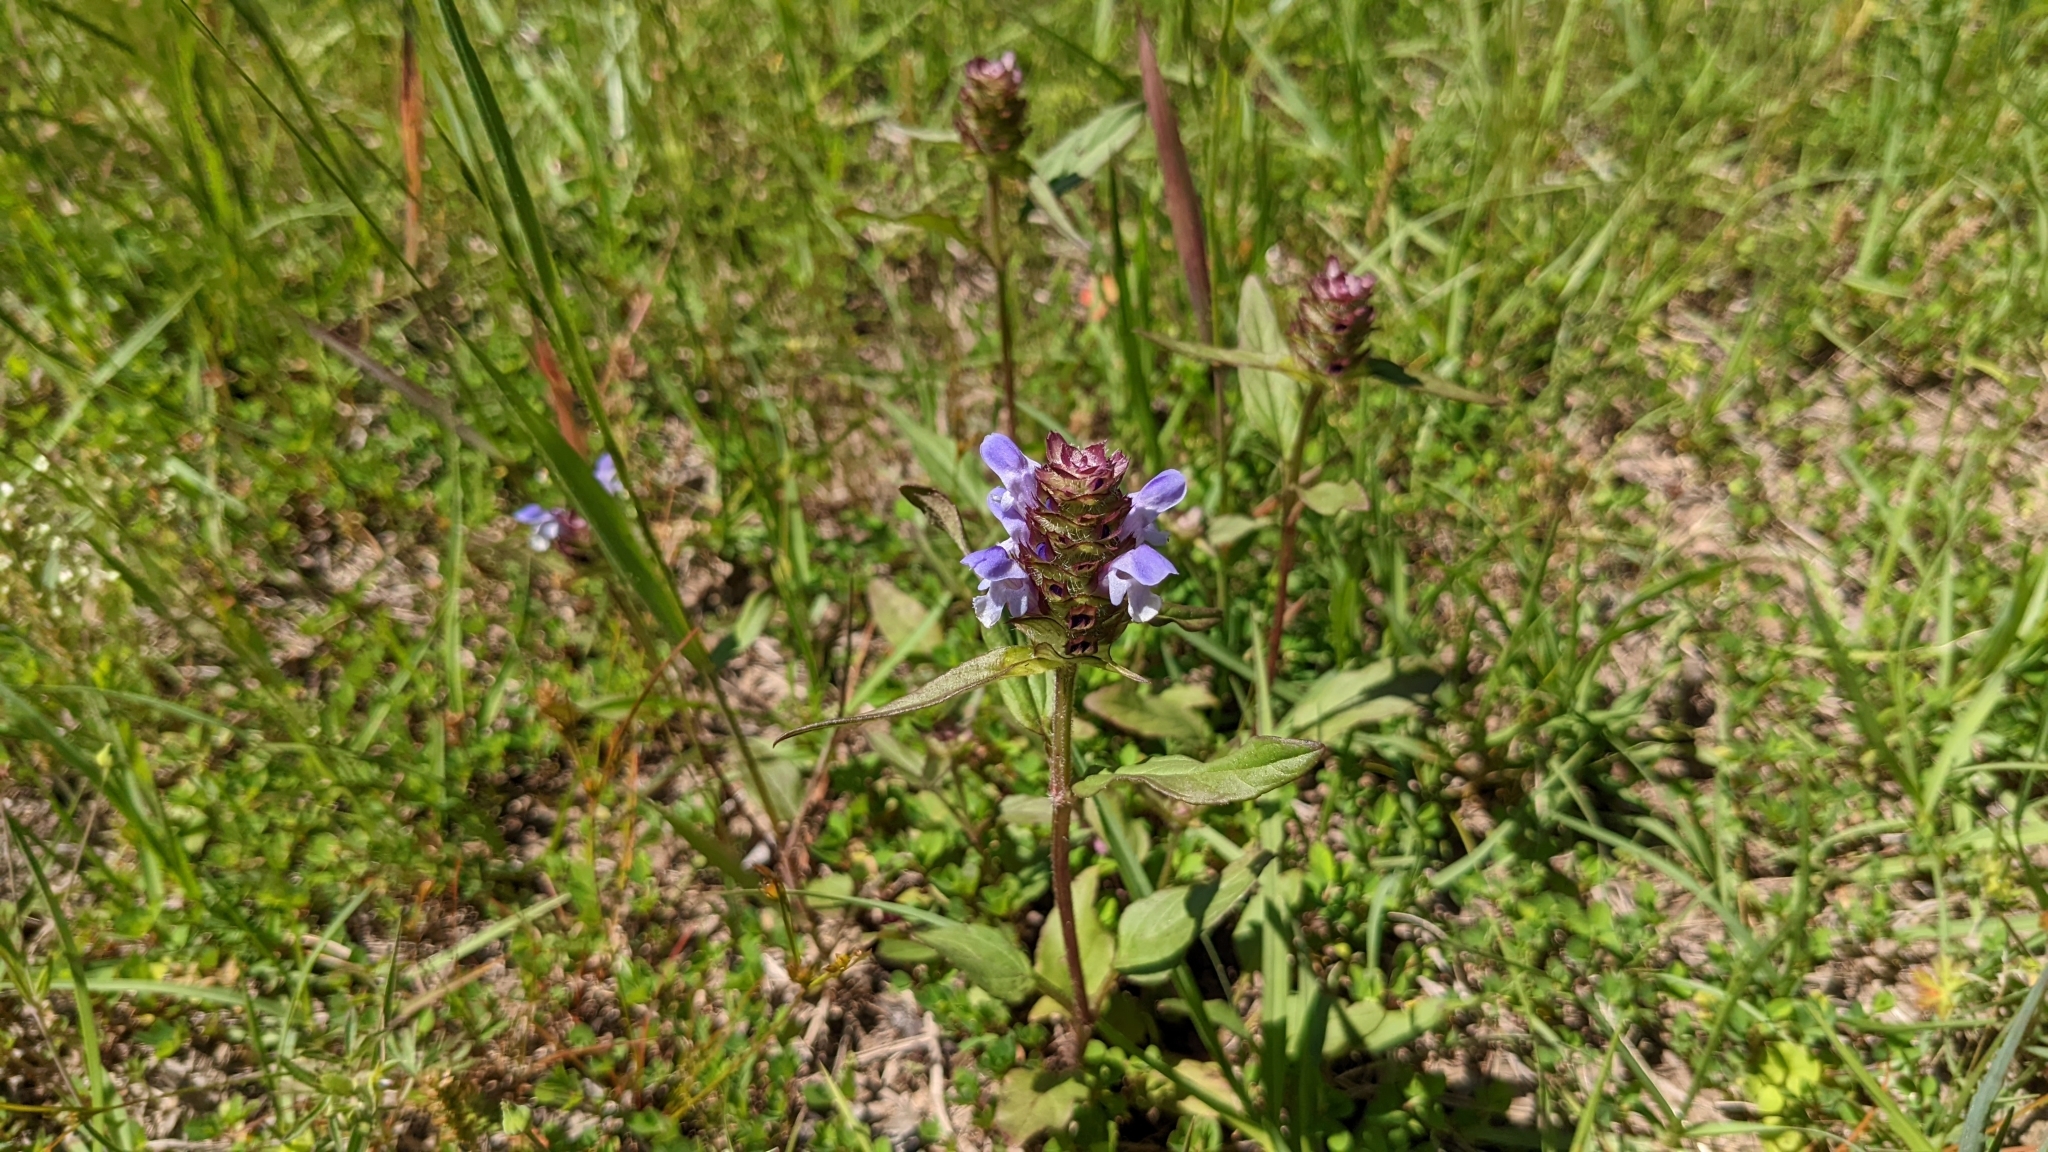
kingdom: Plantae
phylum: Tracheophyta
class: Magnoliopsida
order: Lamiales
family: Lamiaceae
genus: Prunella
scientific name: Prunella vulgaris
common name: Heal-all
